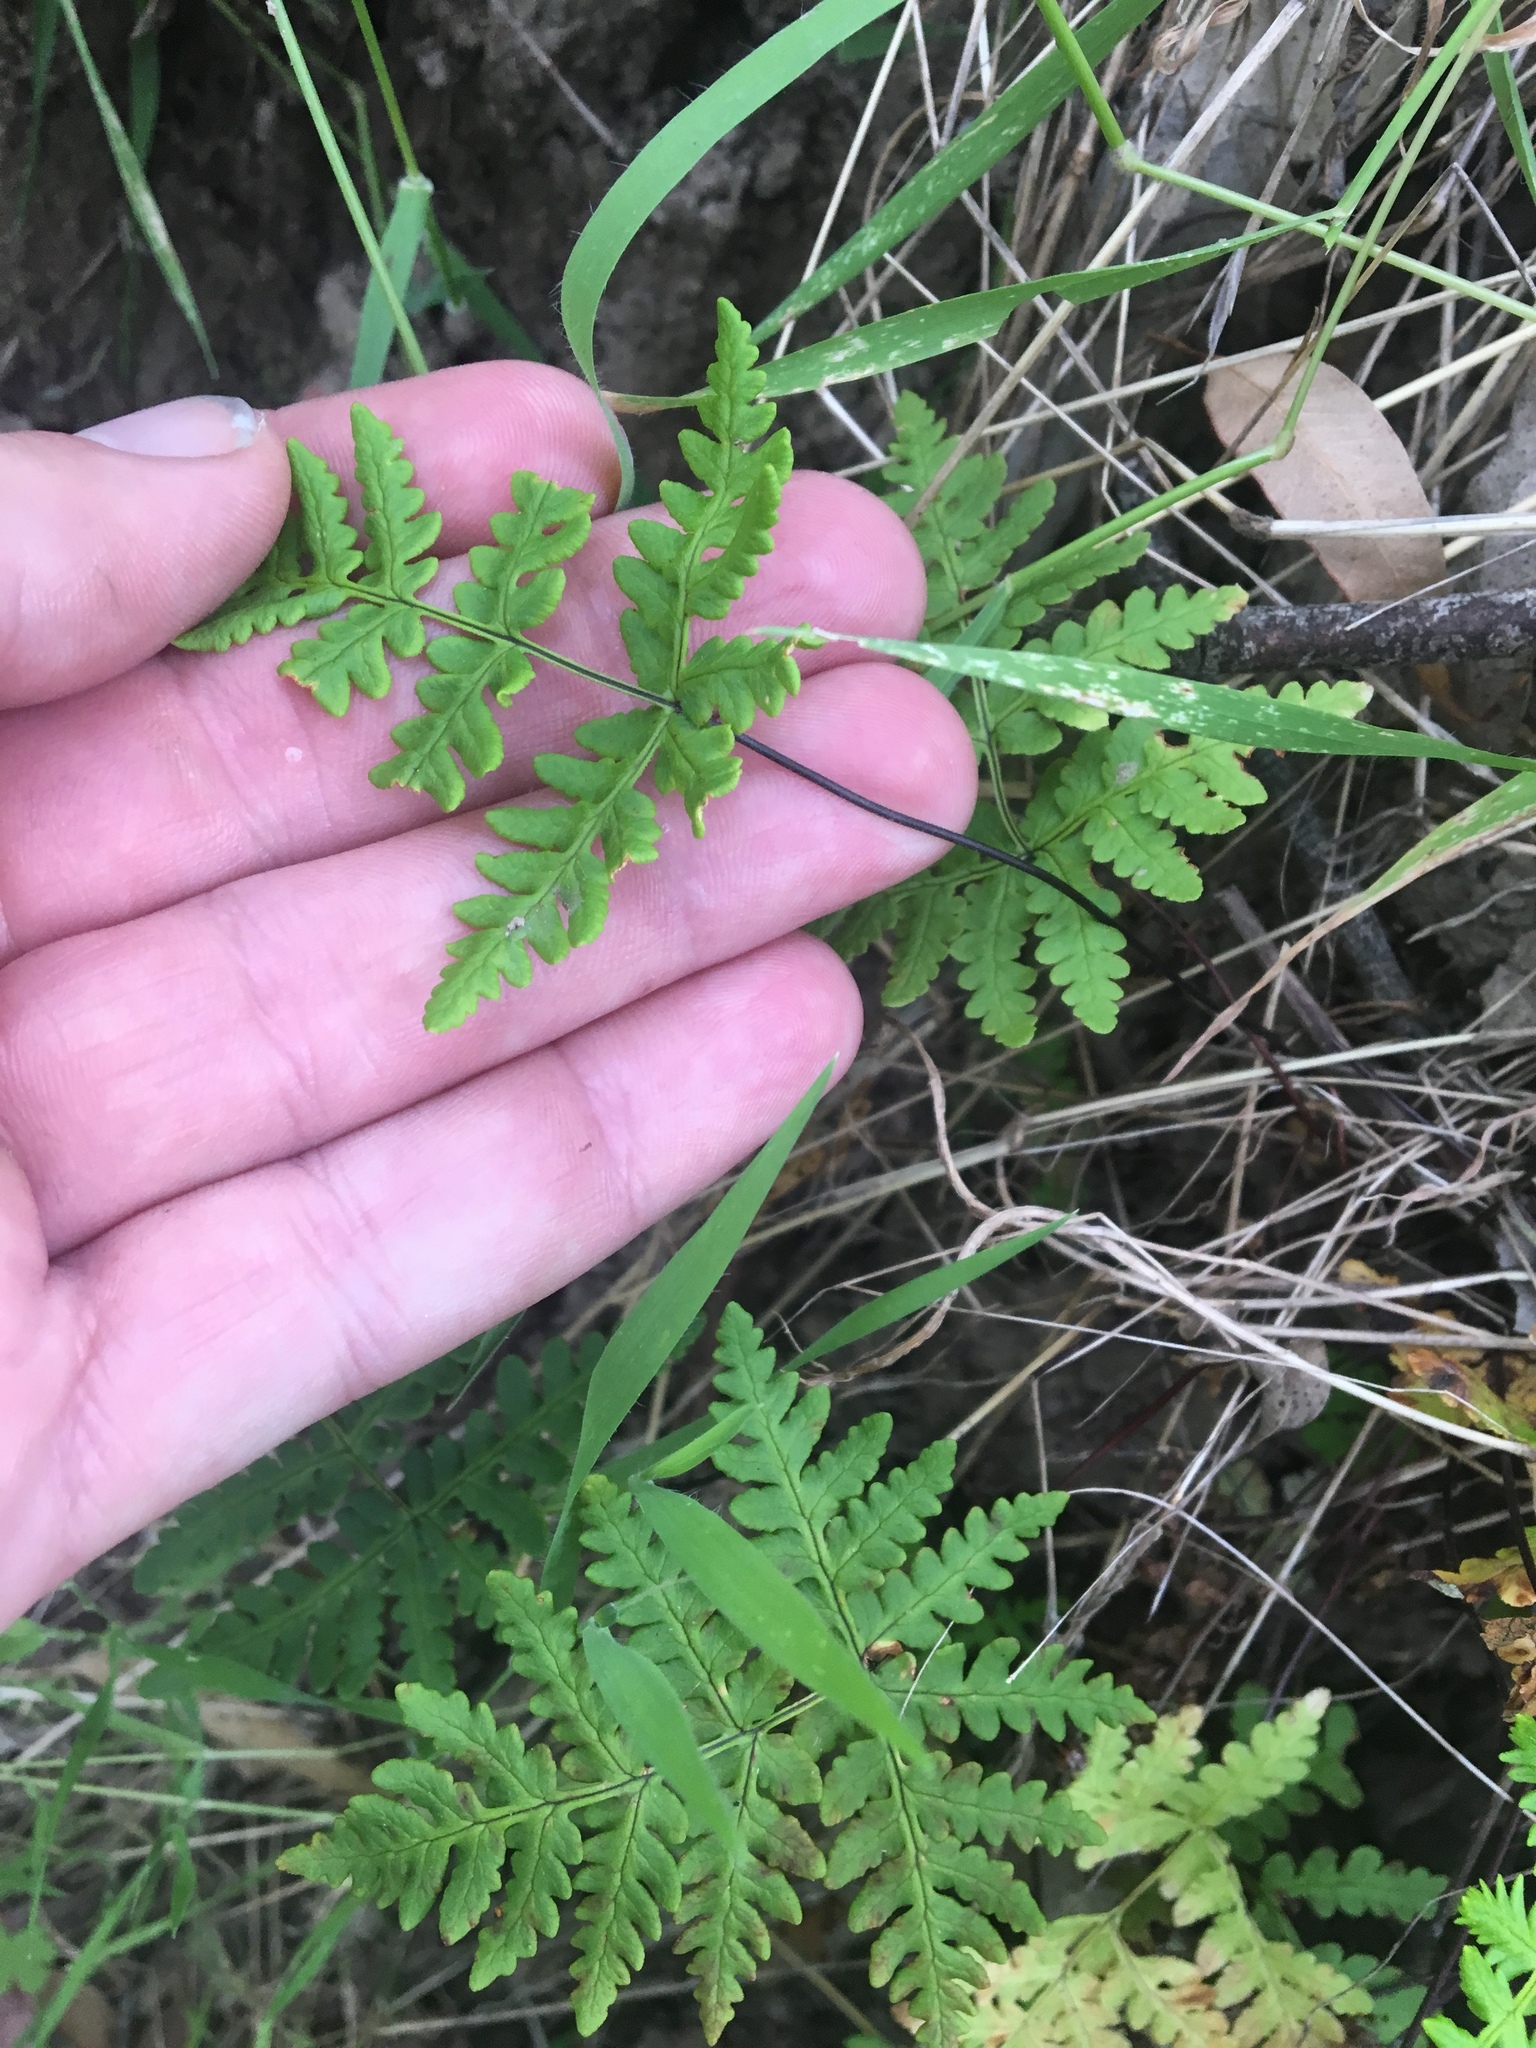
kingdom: Plantae
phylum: Tracheophyta
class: Polypodiopsida
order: Polypodiales
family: Pteridaceae
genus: Pentagramma
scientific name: Pentagramma triangularis
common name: Gold fern
